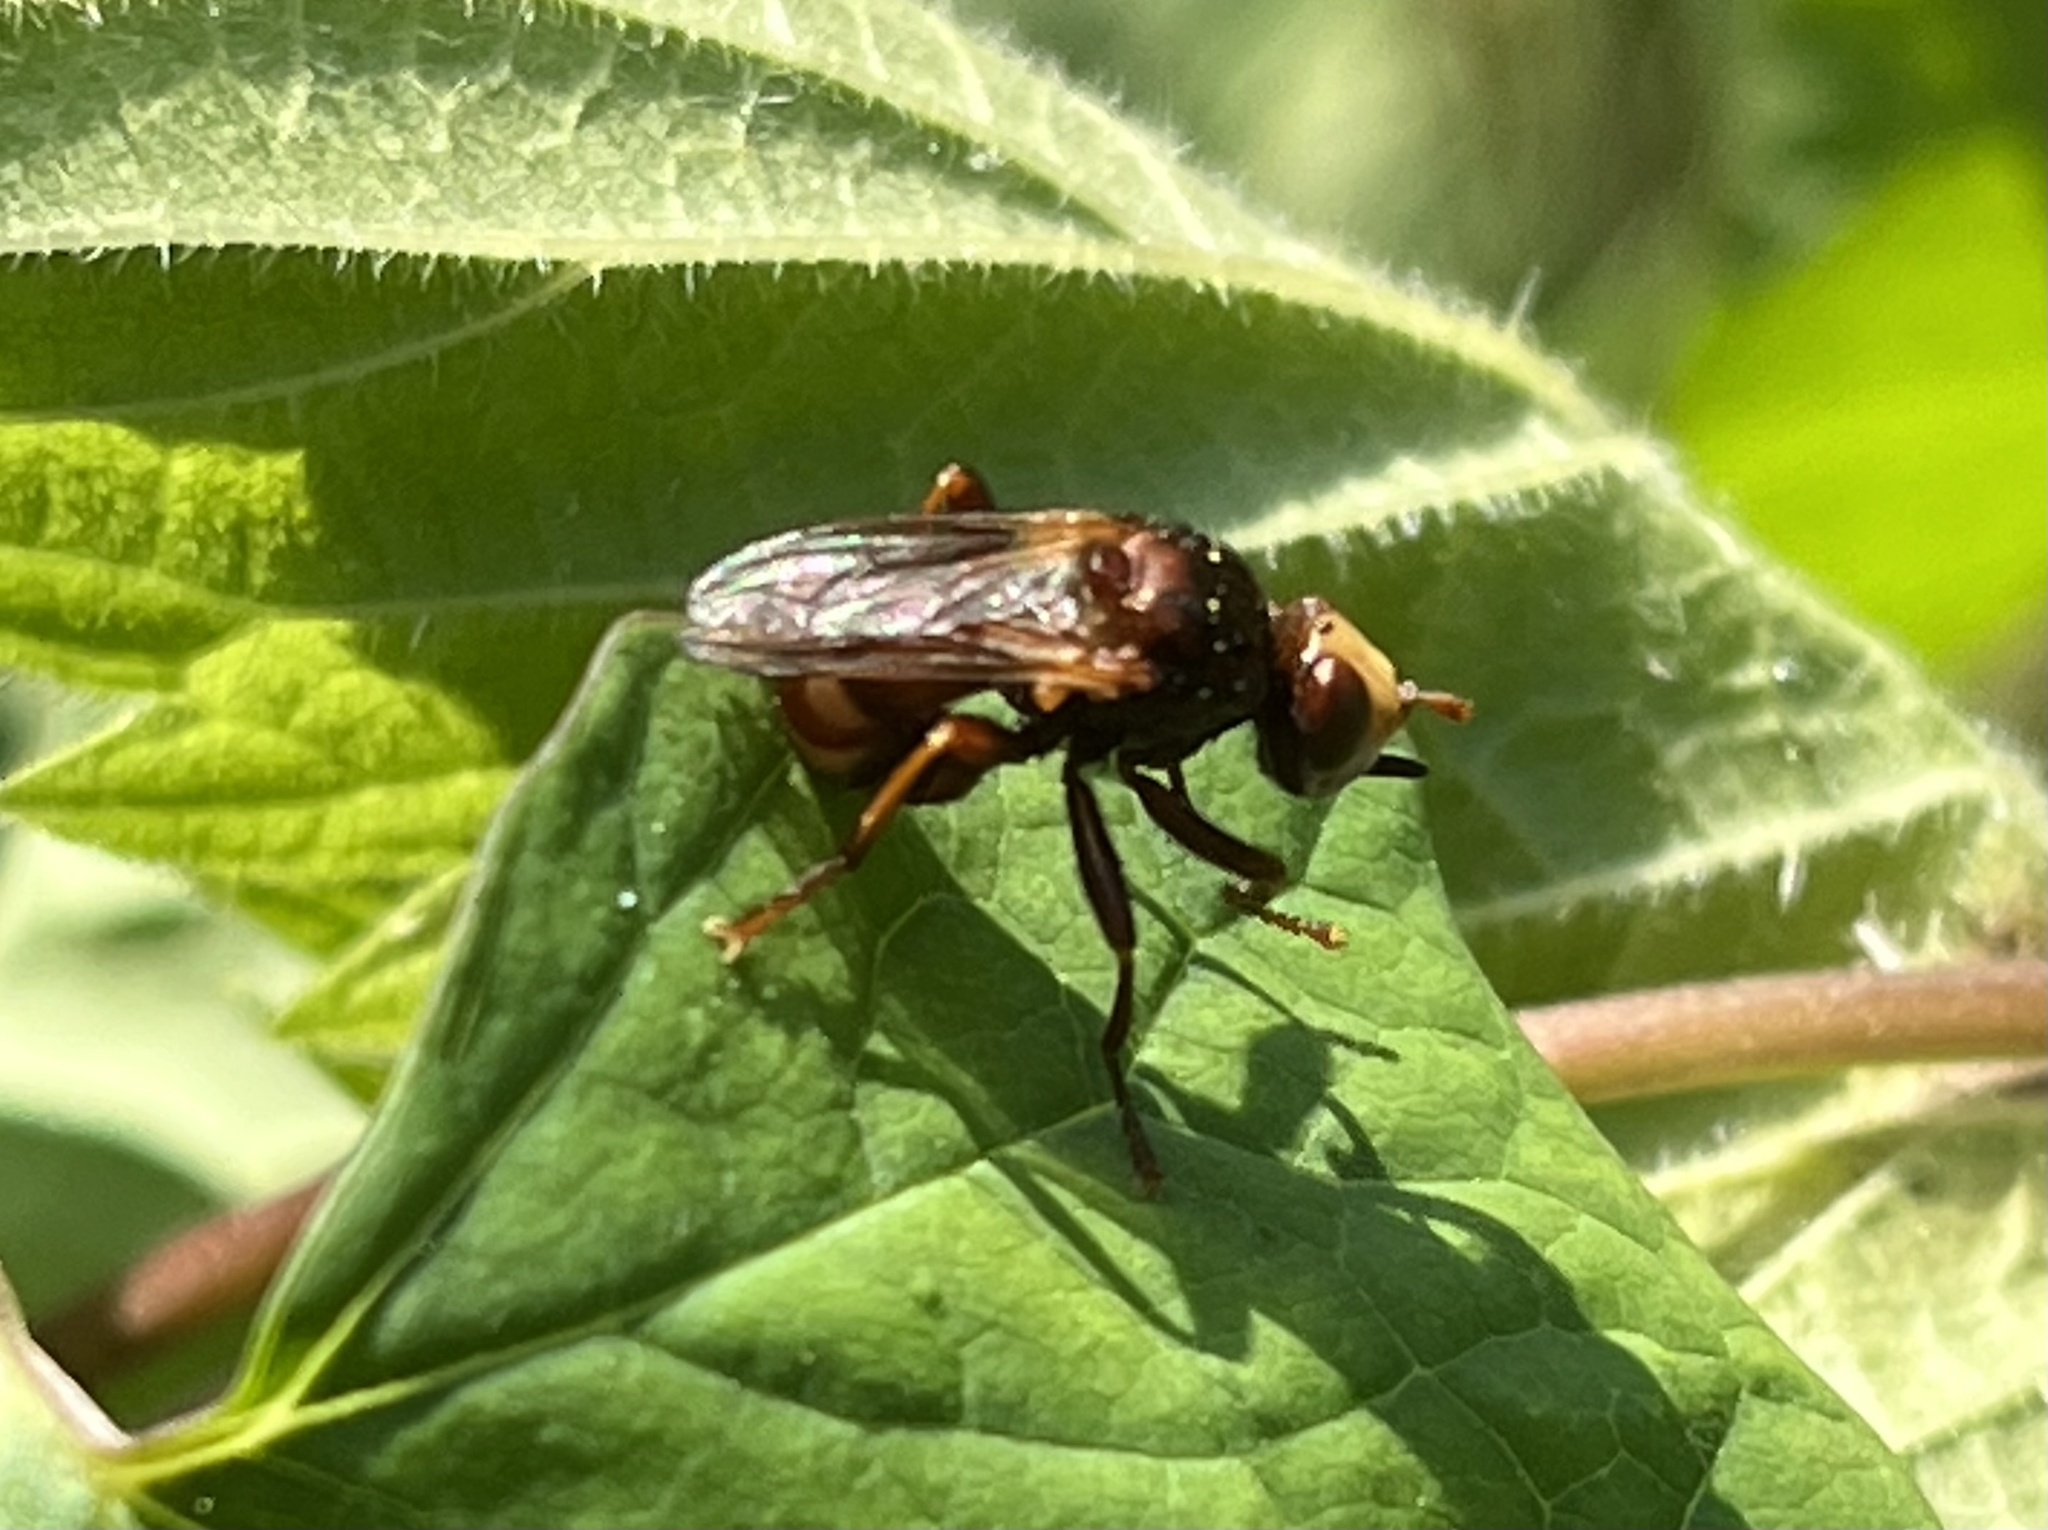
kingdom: Animalia
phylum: Arthropoda
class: Insecta
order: Diptera
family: Conopidae
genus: Sicus
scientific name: Sicus ferrugineus
